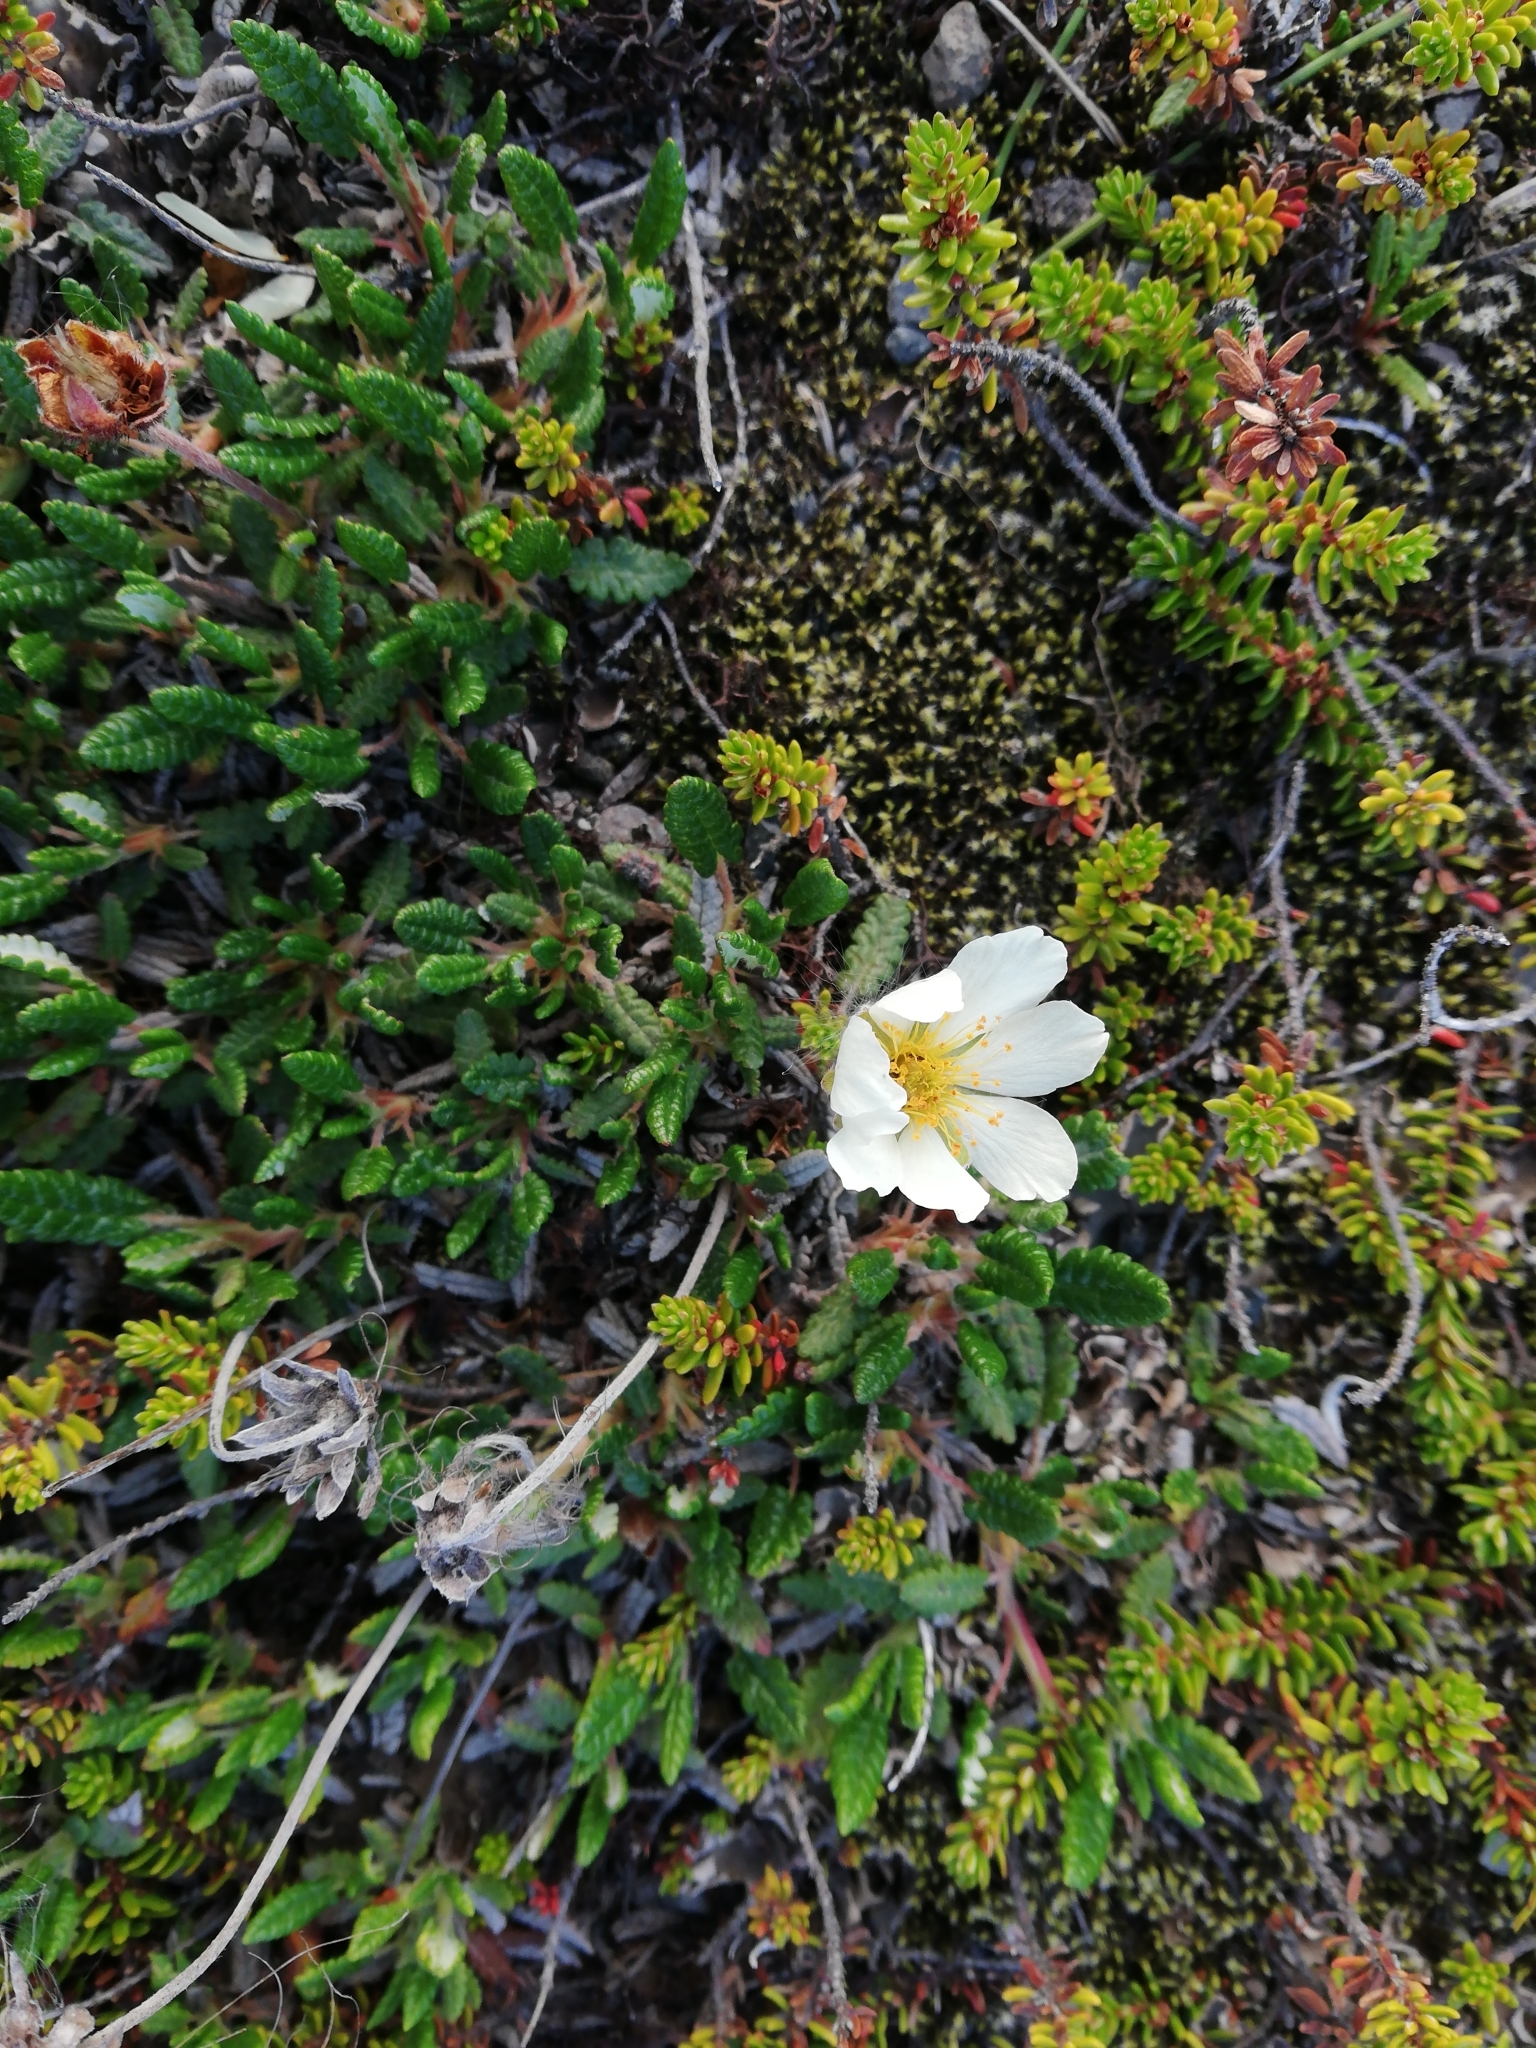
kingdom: Plantae
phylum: Tracheophyta
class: Magnoliopsida
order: Rosales
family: Rosaceae
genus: Dryas
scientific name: Dryas octopetala
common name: Eight-petal mountain-avens
